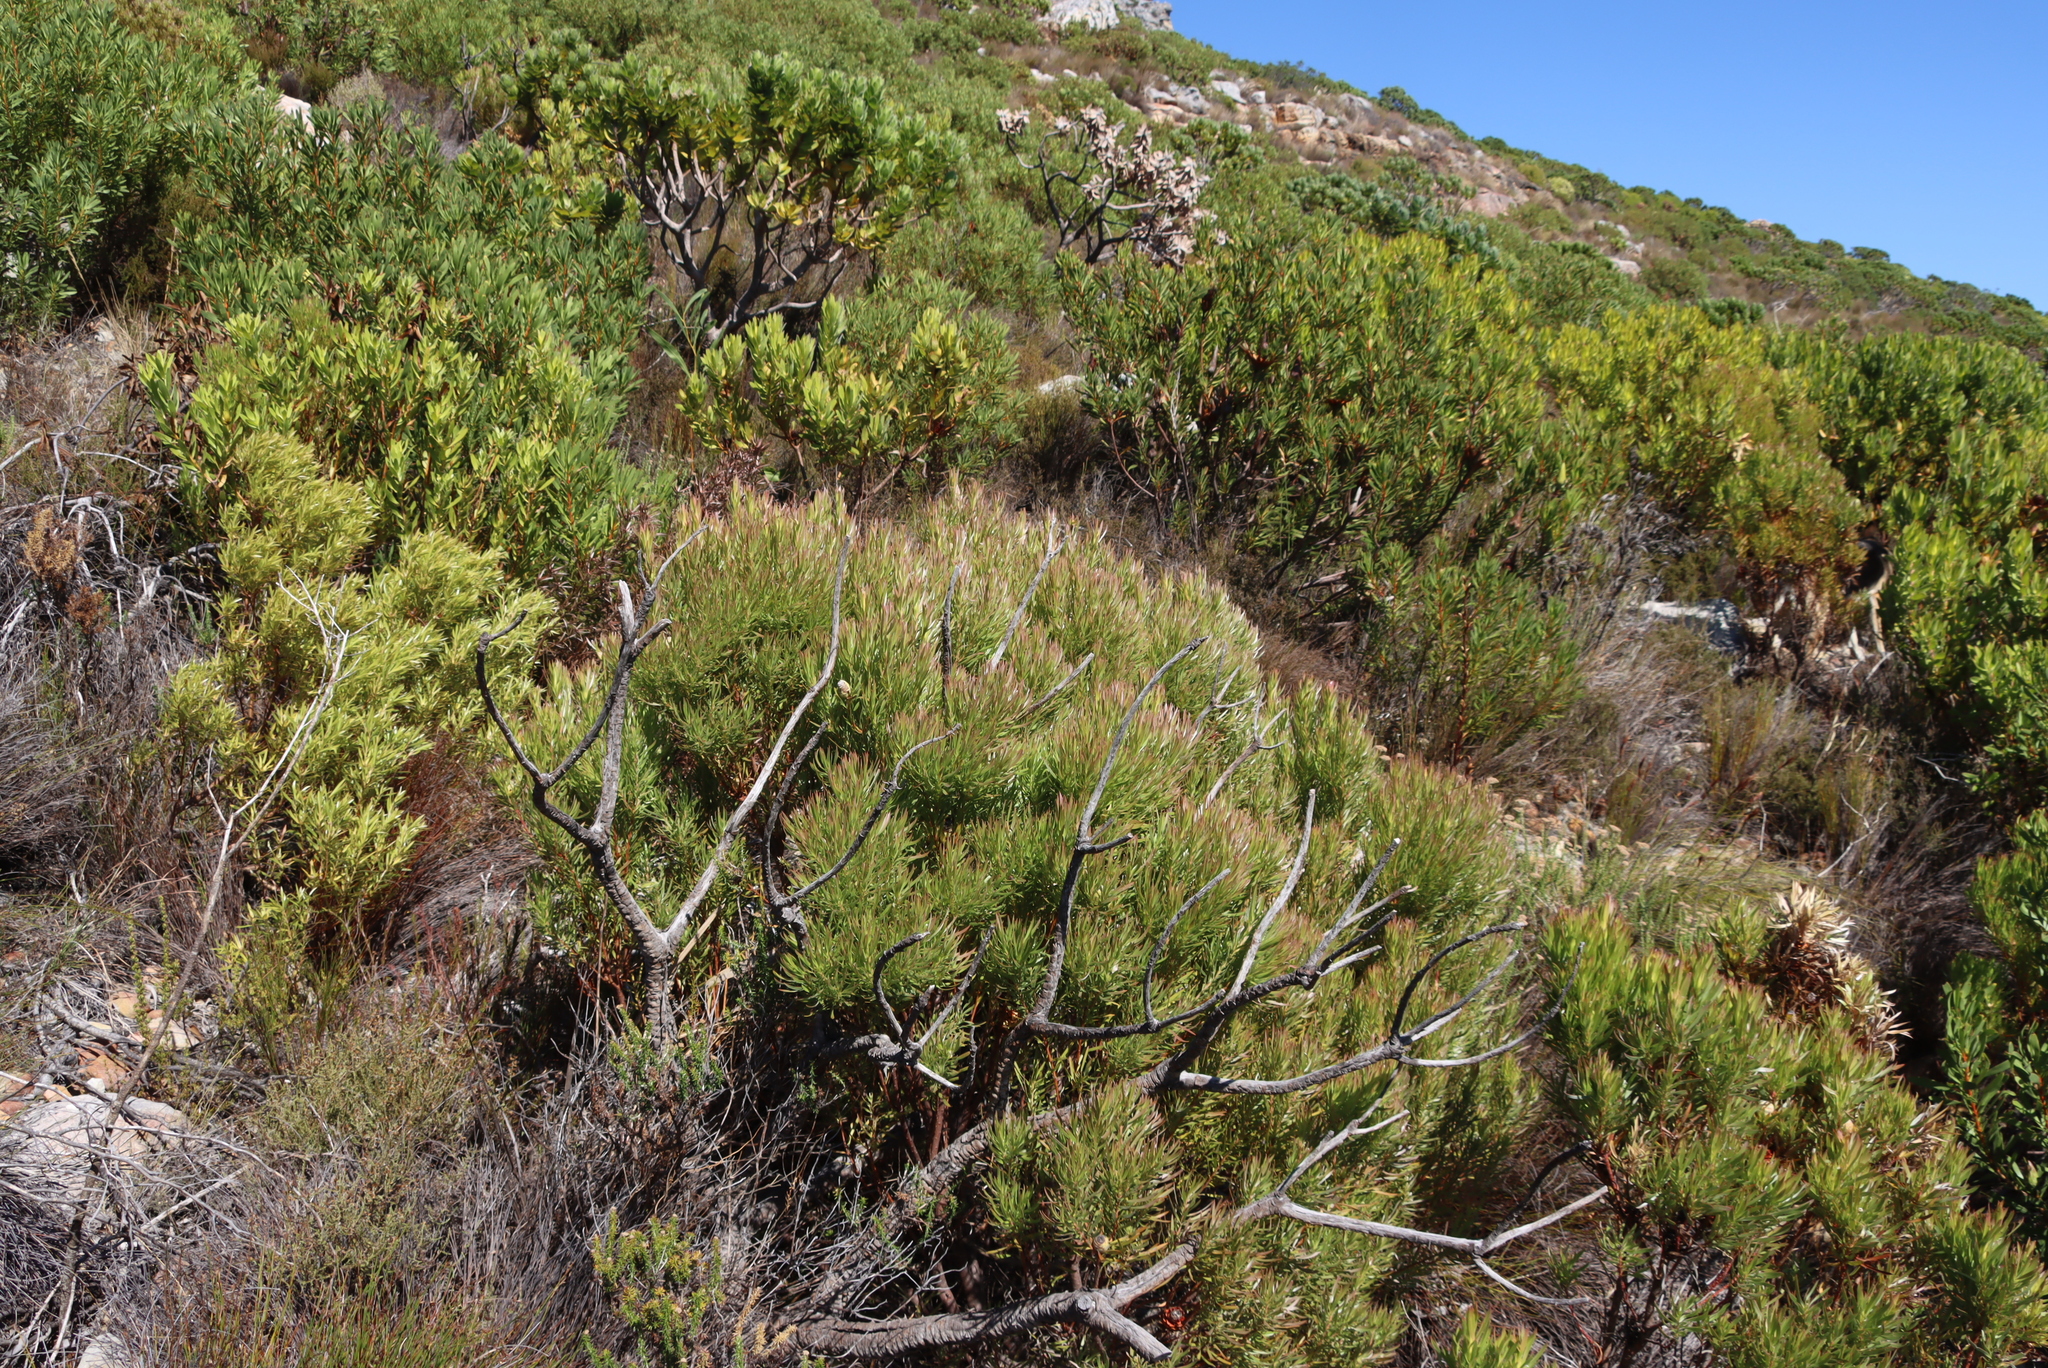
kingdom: Plantae
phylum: Tracheophyta
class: Magnoliopsida
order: Proteales
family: Proteaceae
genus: Leucadendron
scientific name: Leucadendron xanthoconus
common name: Sickle-leaf conebush
